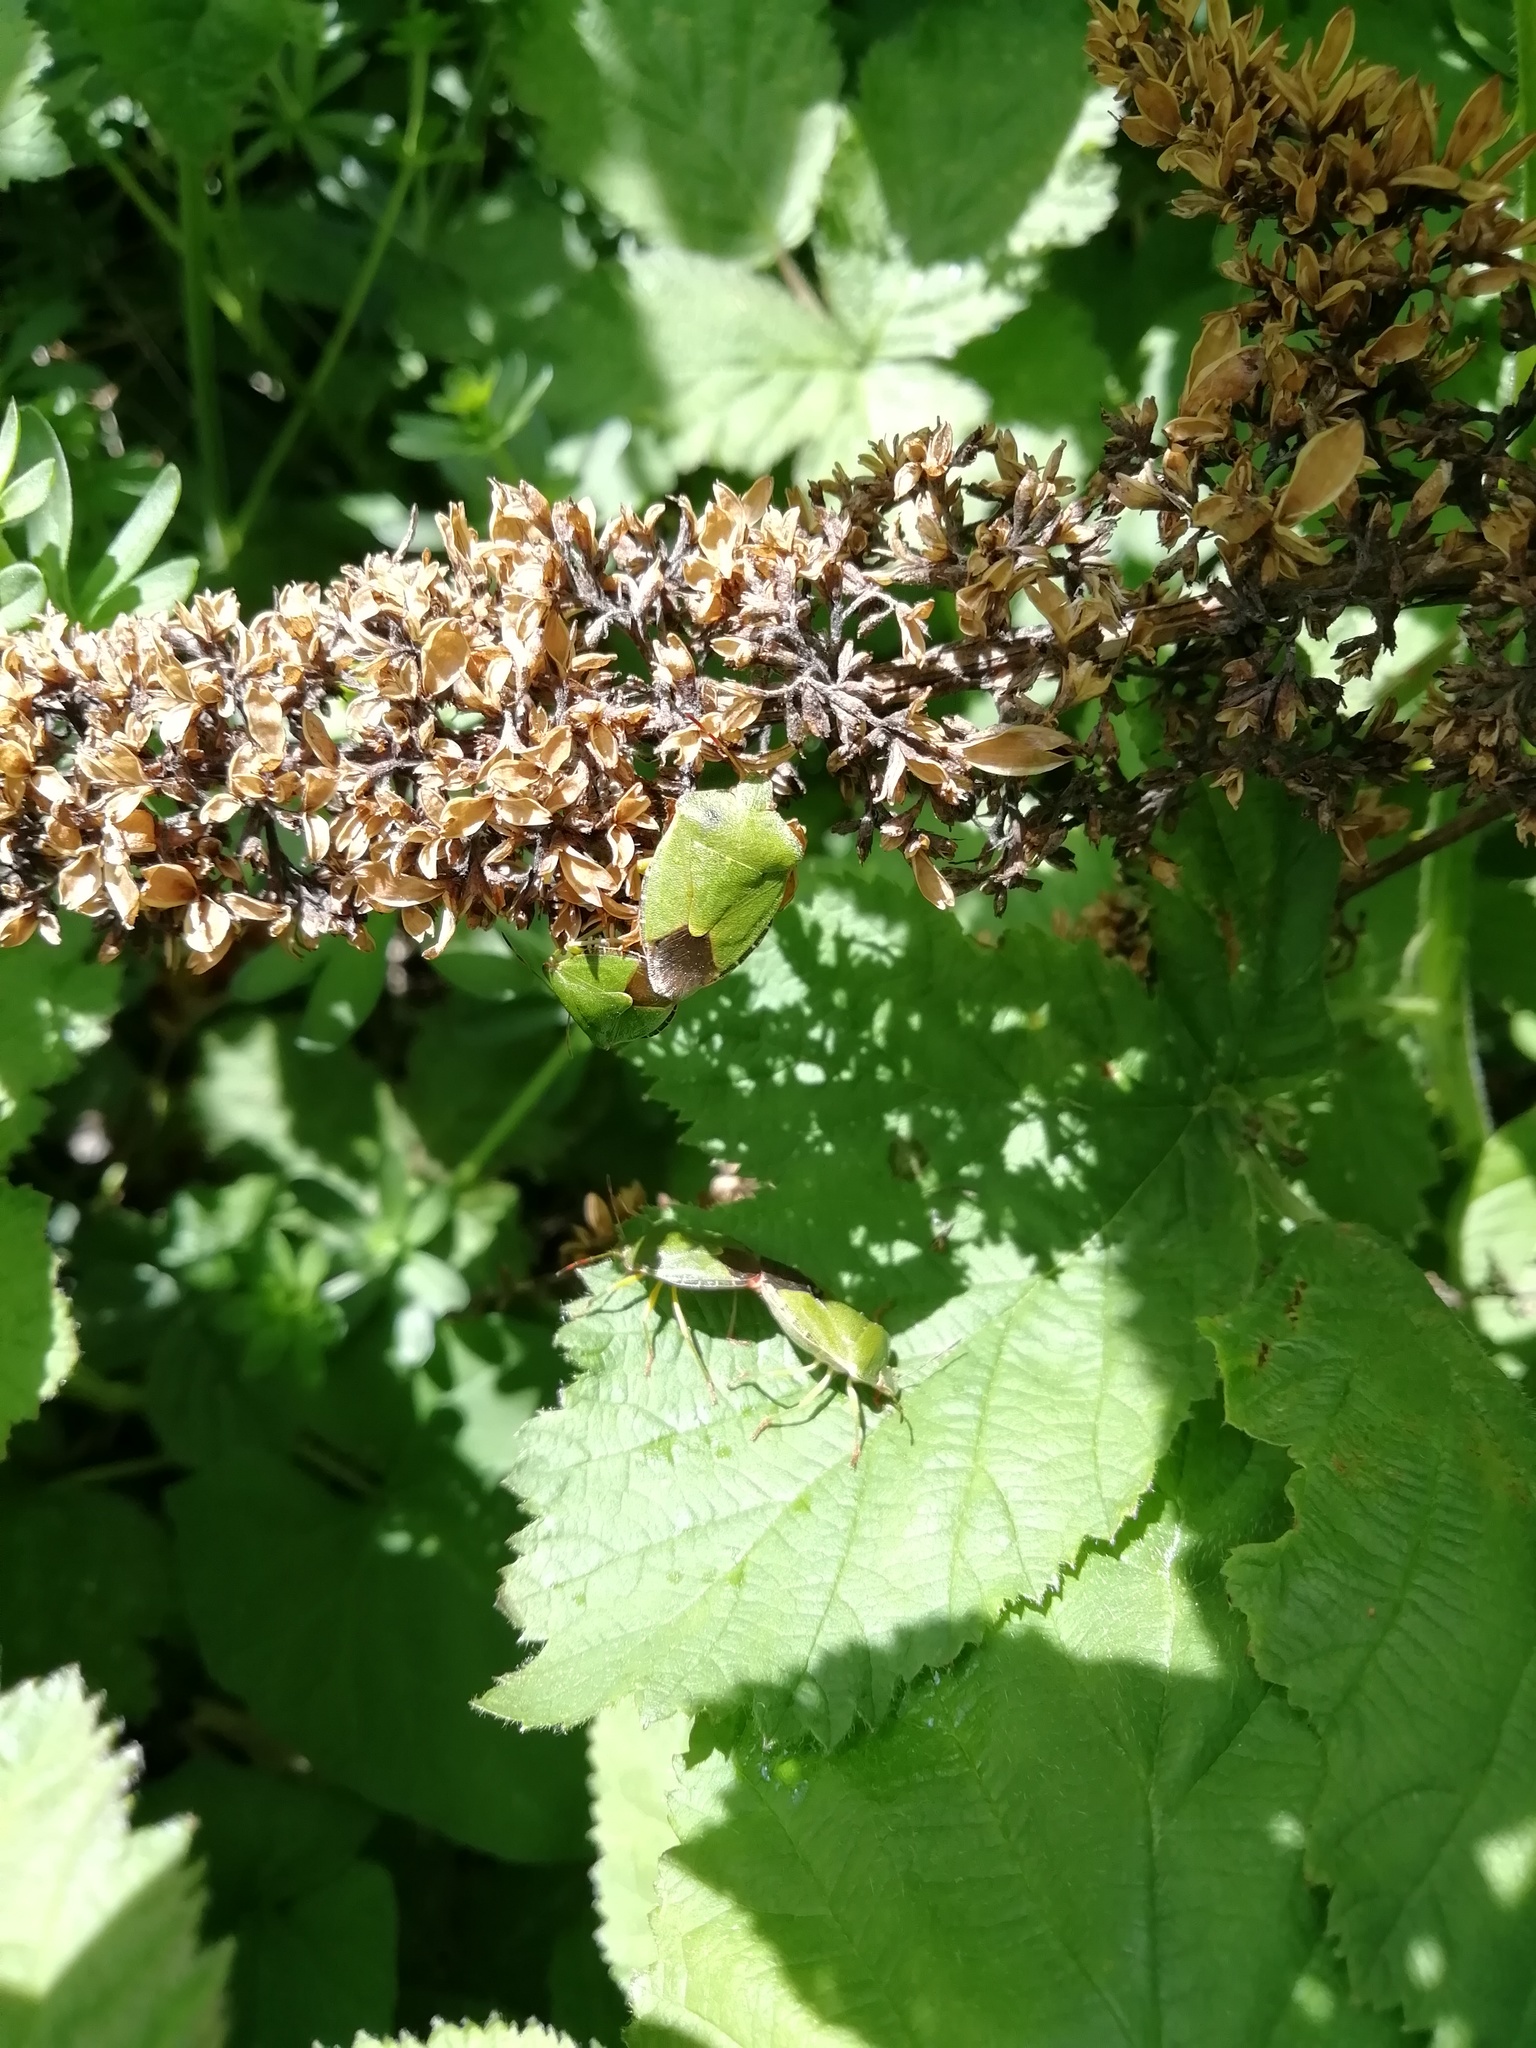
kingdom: Animalia
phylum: Arthropoda
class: Insecta
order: Hemiptera
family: Pentatomidae
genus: Palomena
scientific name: Palomena prasina
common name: Green shieldbug
